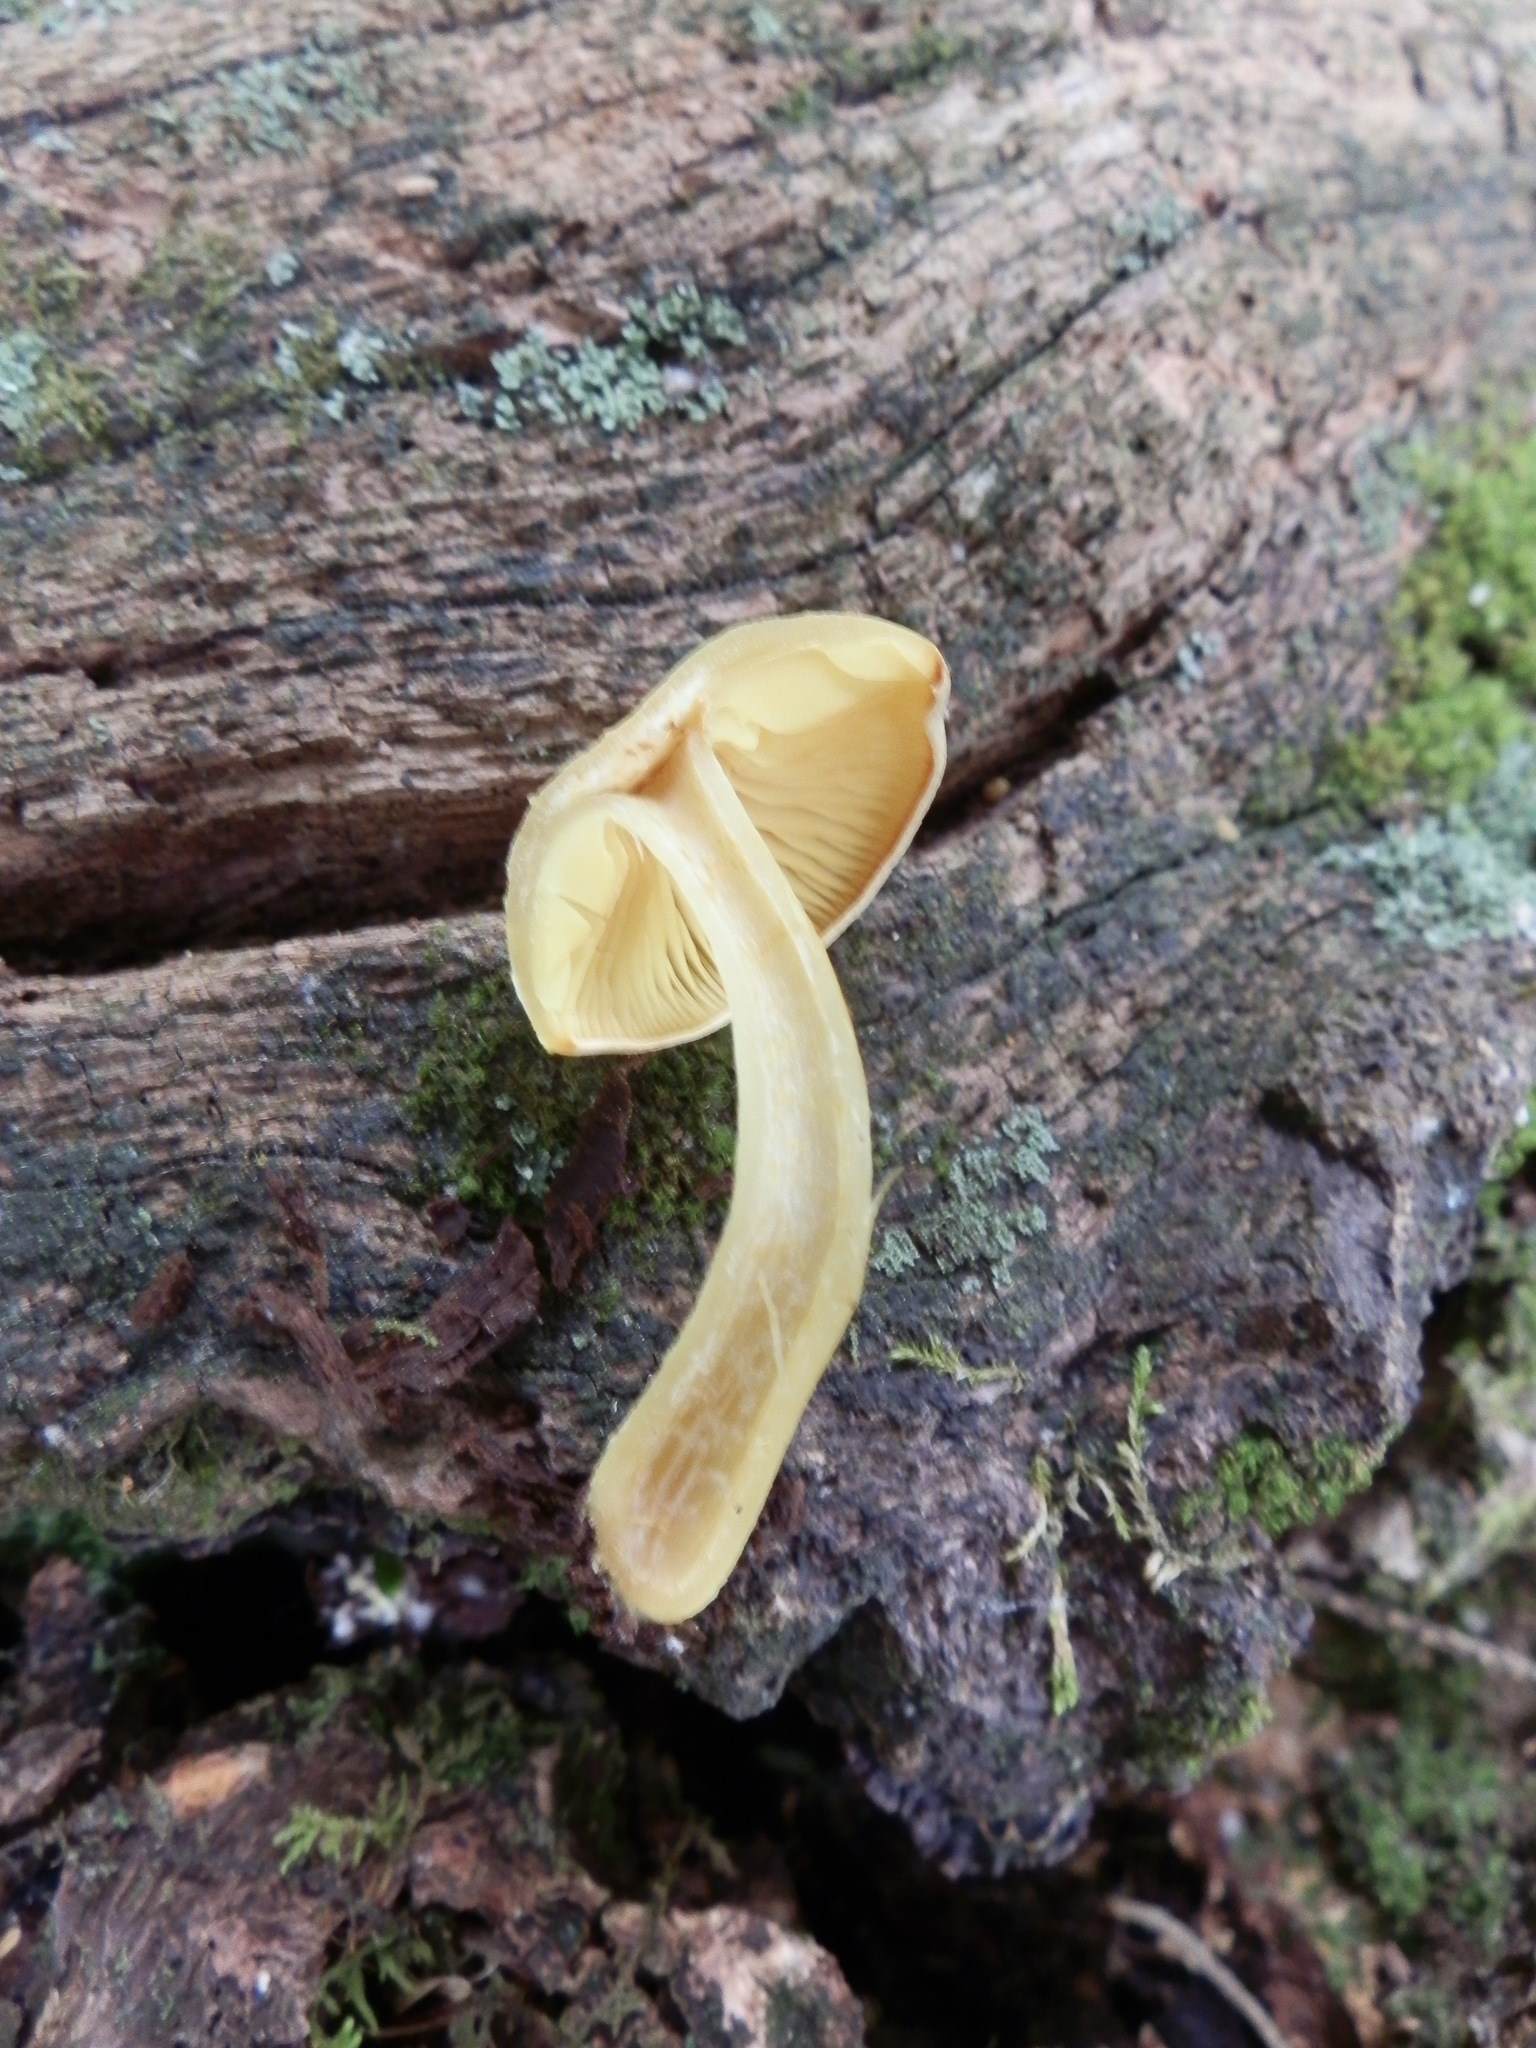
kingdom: Fungi
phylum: Basidiomycota
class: Agaricomycetes
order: Agaricales
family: Tricholomataceae
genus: Tricholomopsis
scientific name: Tricholomopsis sulfureoides
